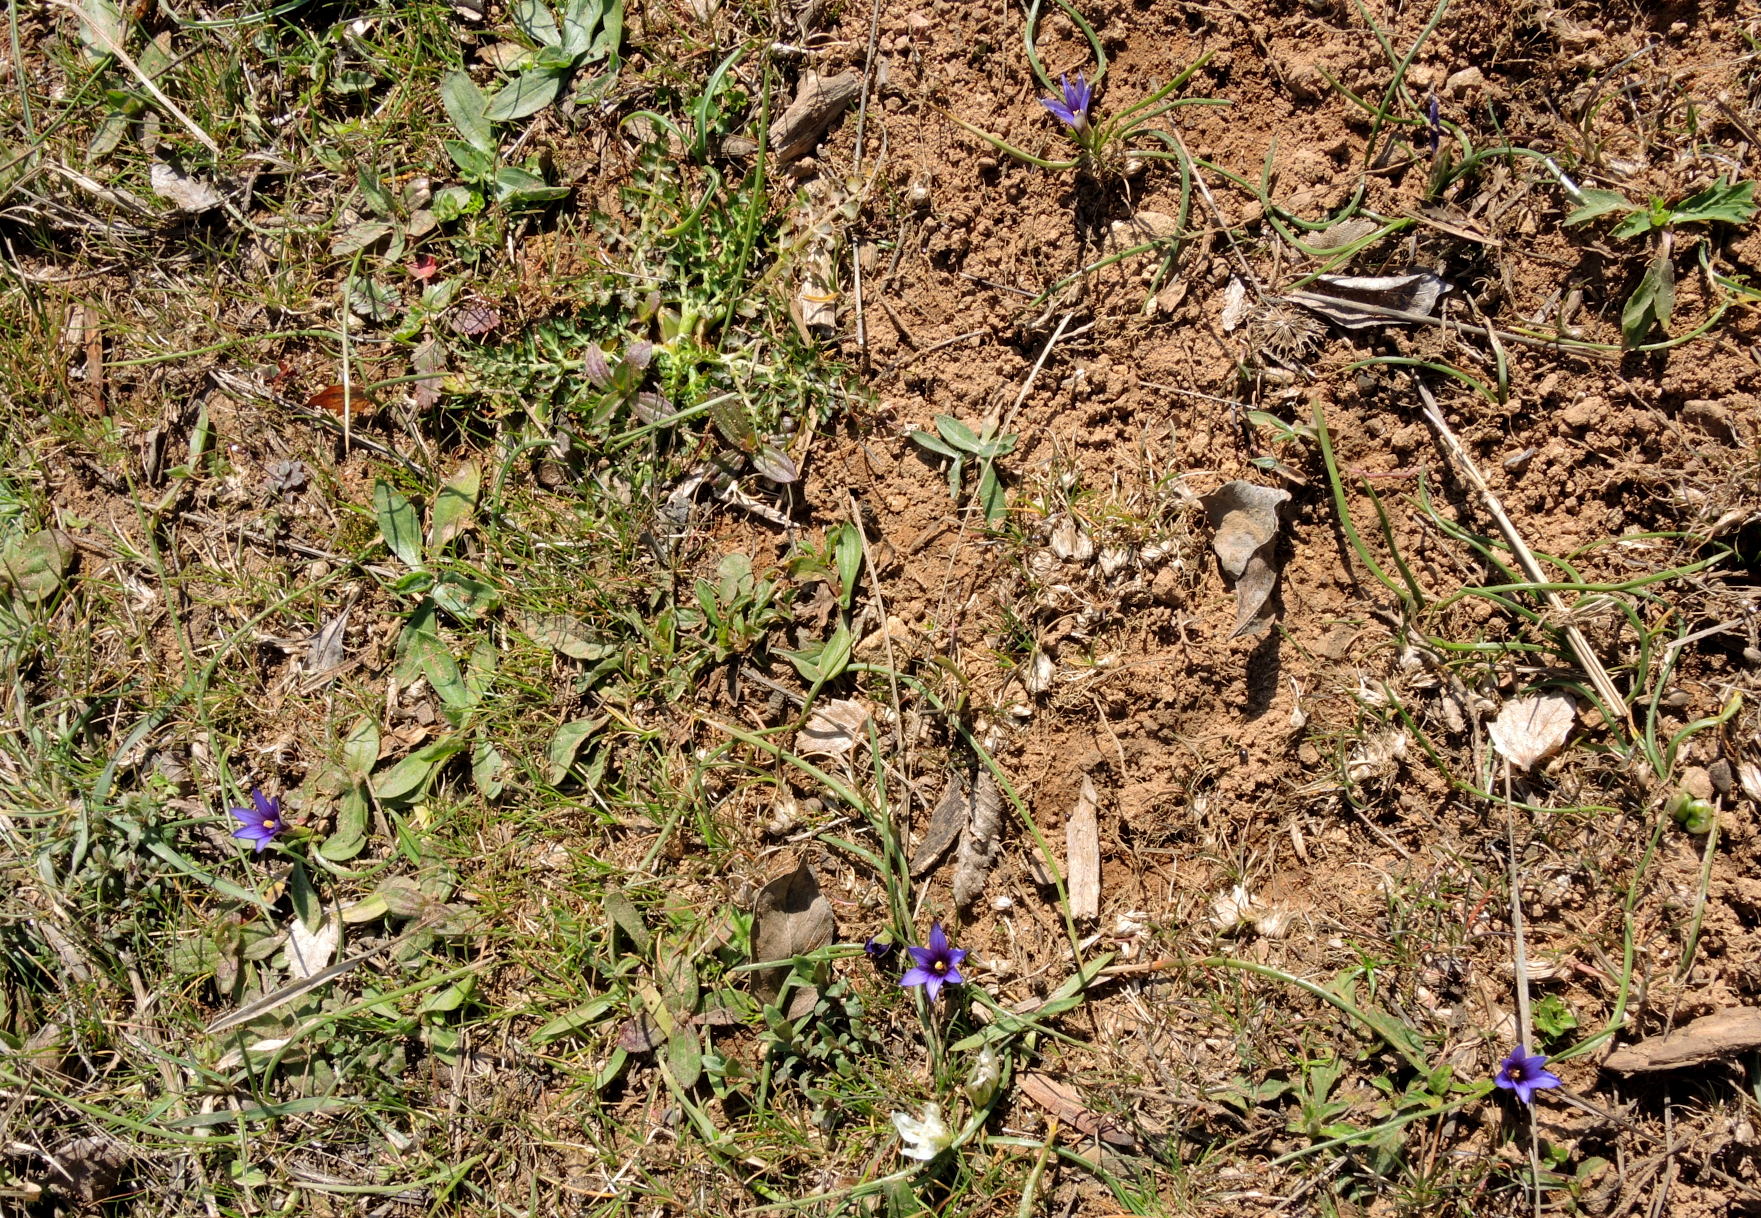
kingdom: Plantae
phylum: Tracheophyta
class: Liliopsida
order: Asparagales
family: Iridaceae
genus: Romulea
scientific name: Romulea linaresii
